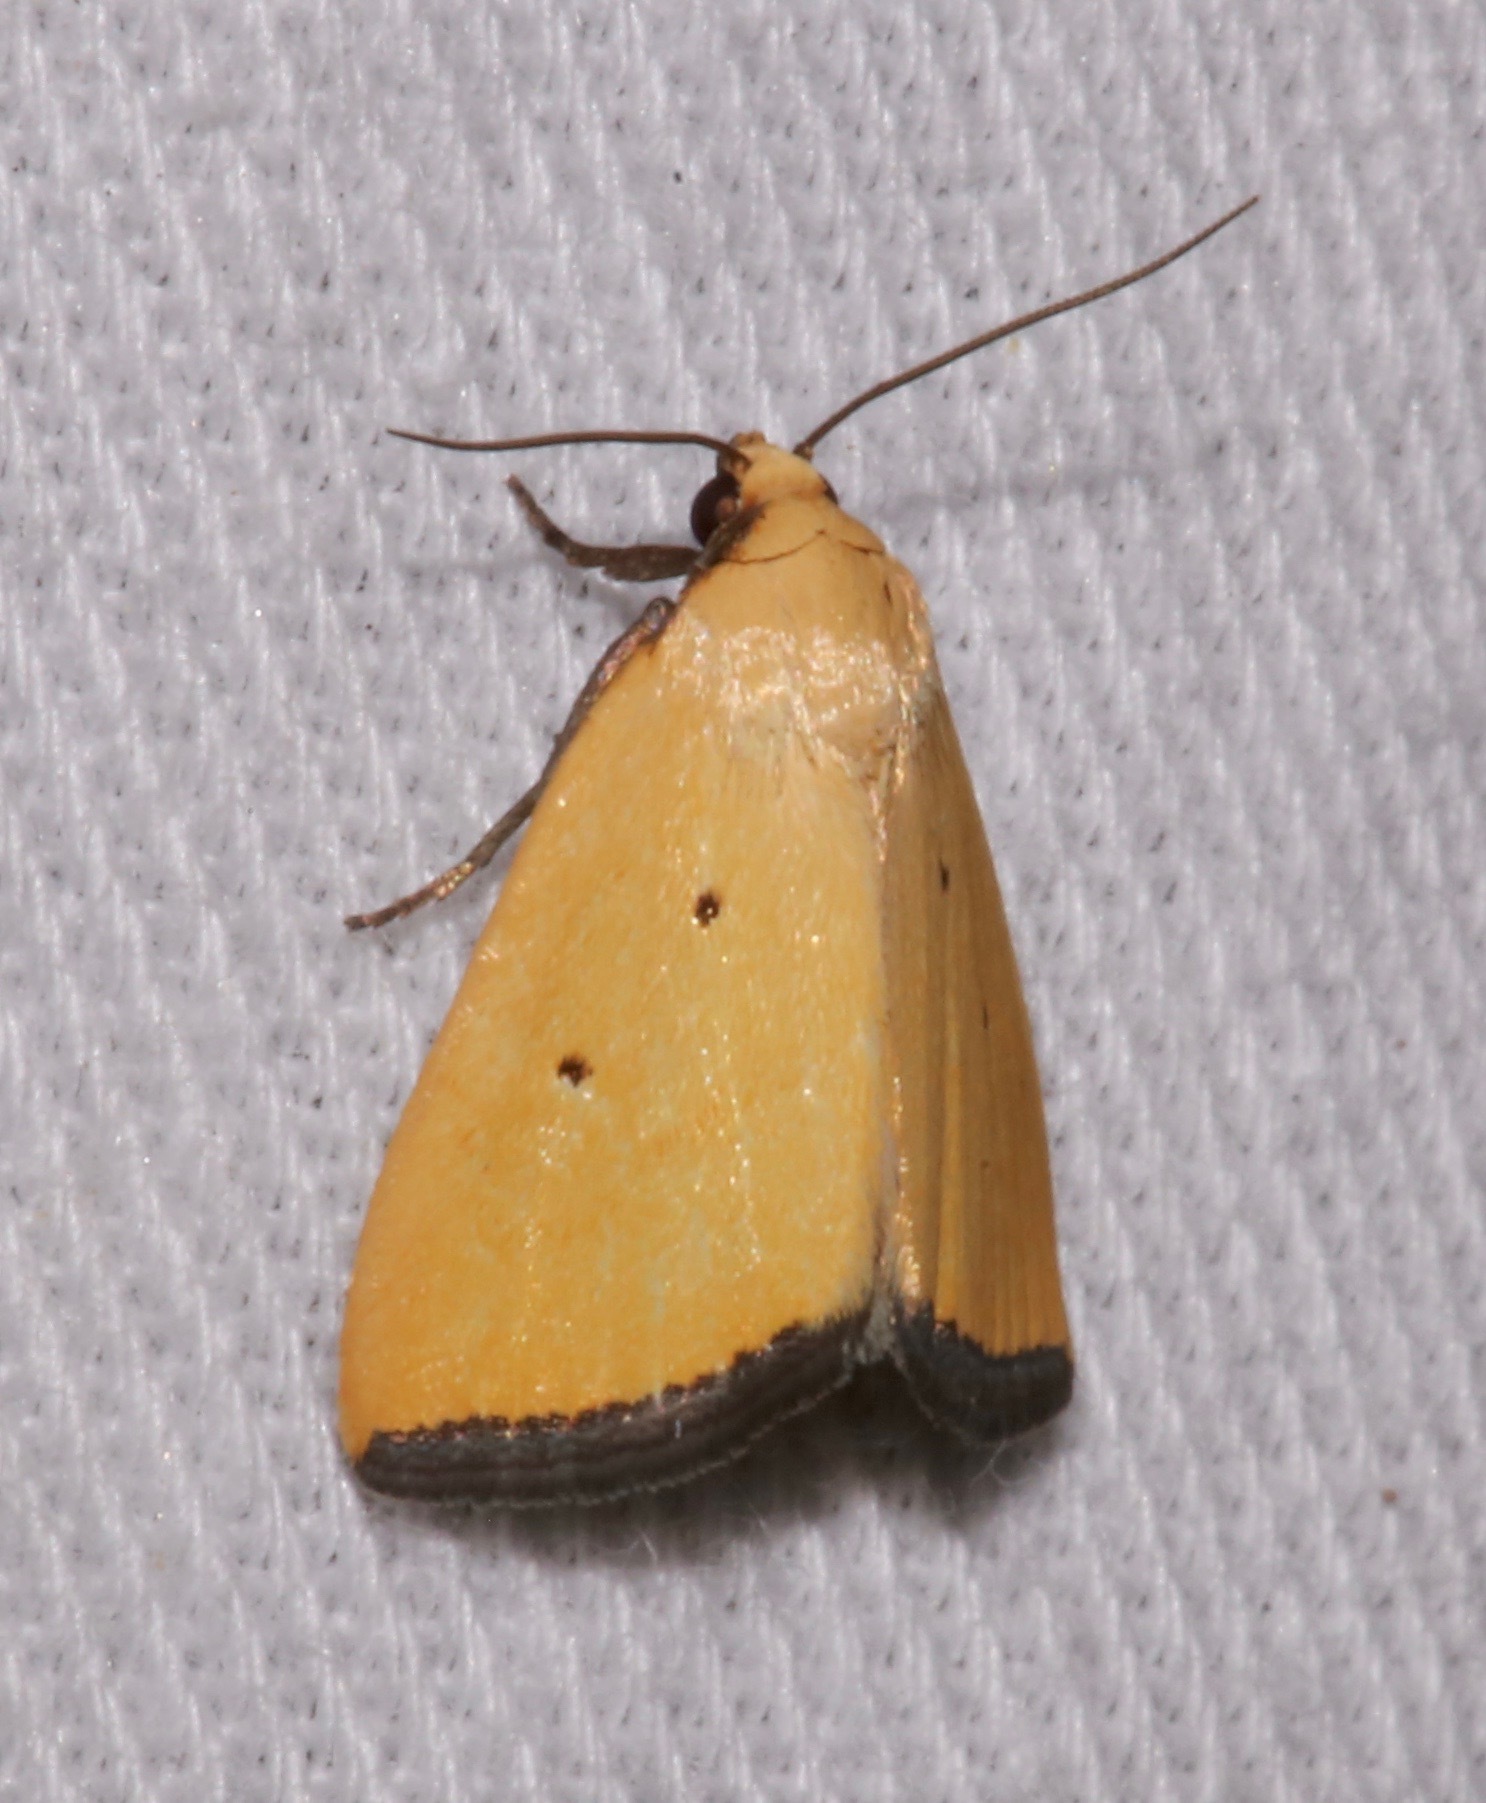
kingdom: Animalia
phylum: Arthropoda
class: Insecta
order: Lepidoptera
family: Noctuidae
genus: Marimatha
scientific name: Marimatha nigrofimbria
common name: Black-bordered lemon moth
